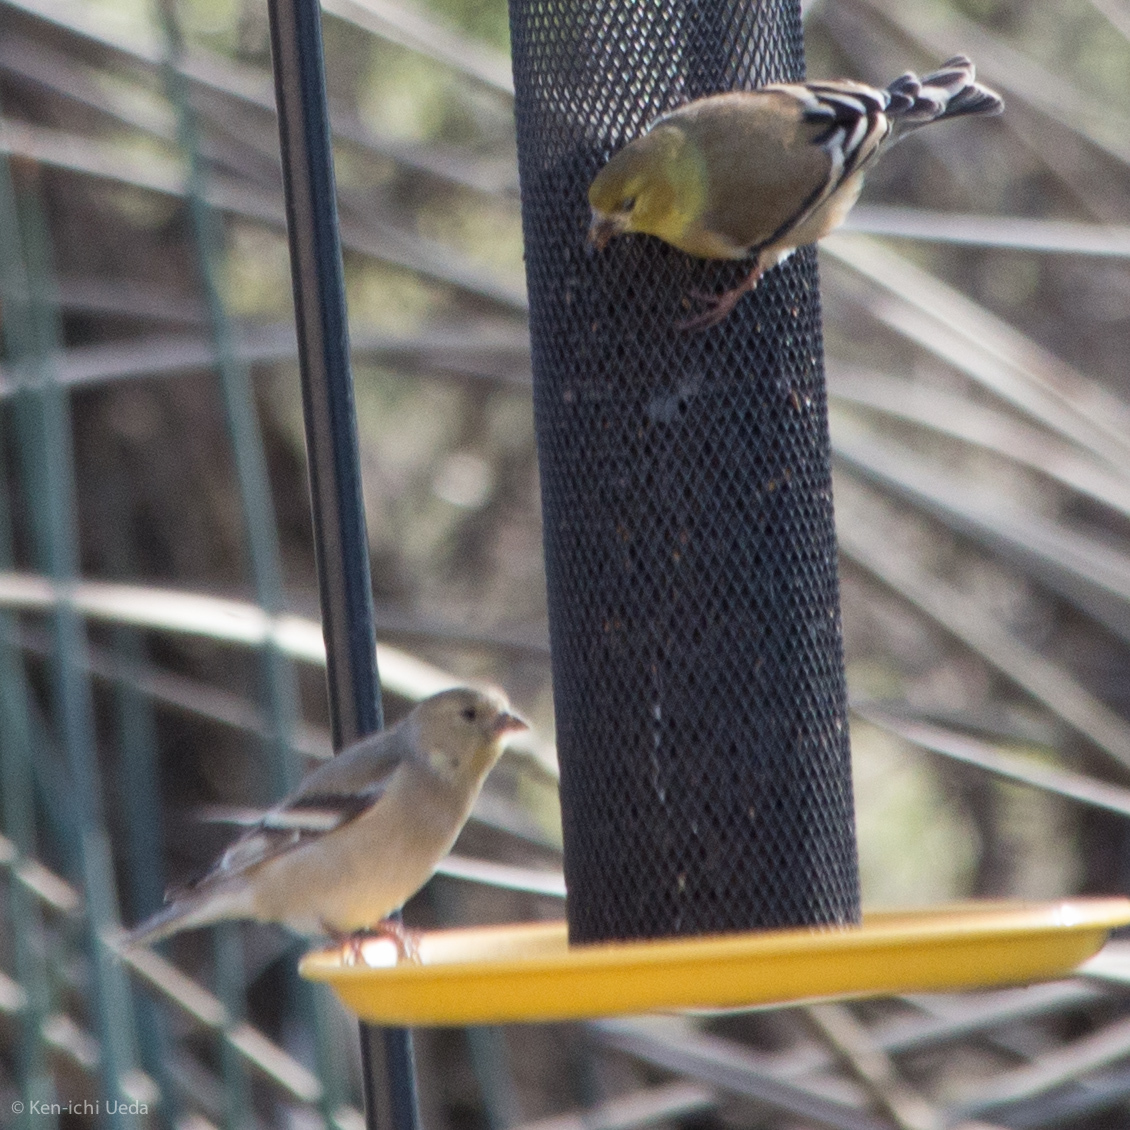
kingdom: Animalia
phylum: Chordata
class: Aves
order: Passeriformes
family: Fringillidae
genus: Spinus
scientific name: Spinus tristis
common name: American goldfinch
